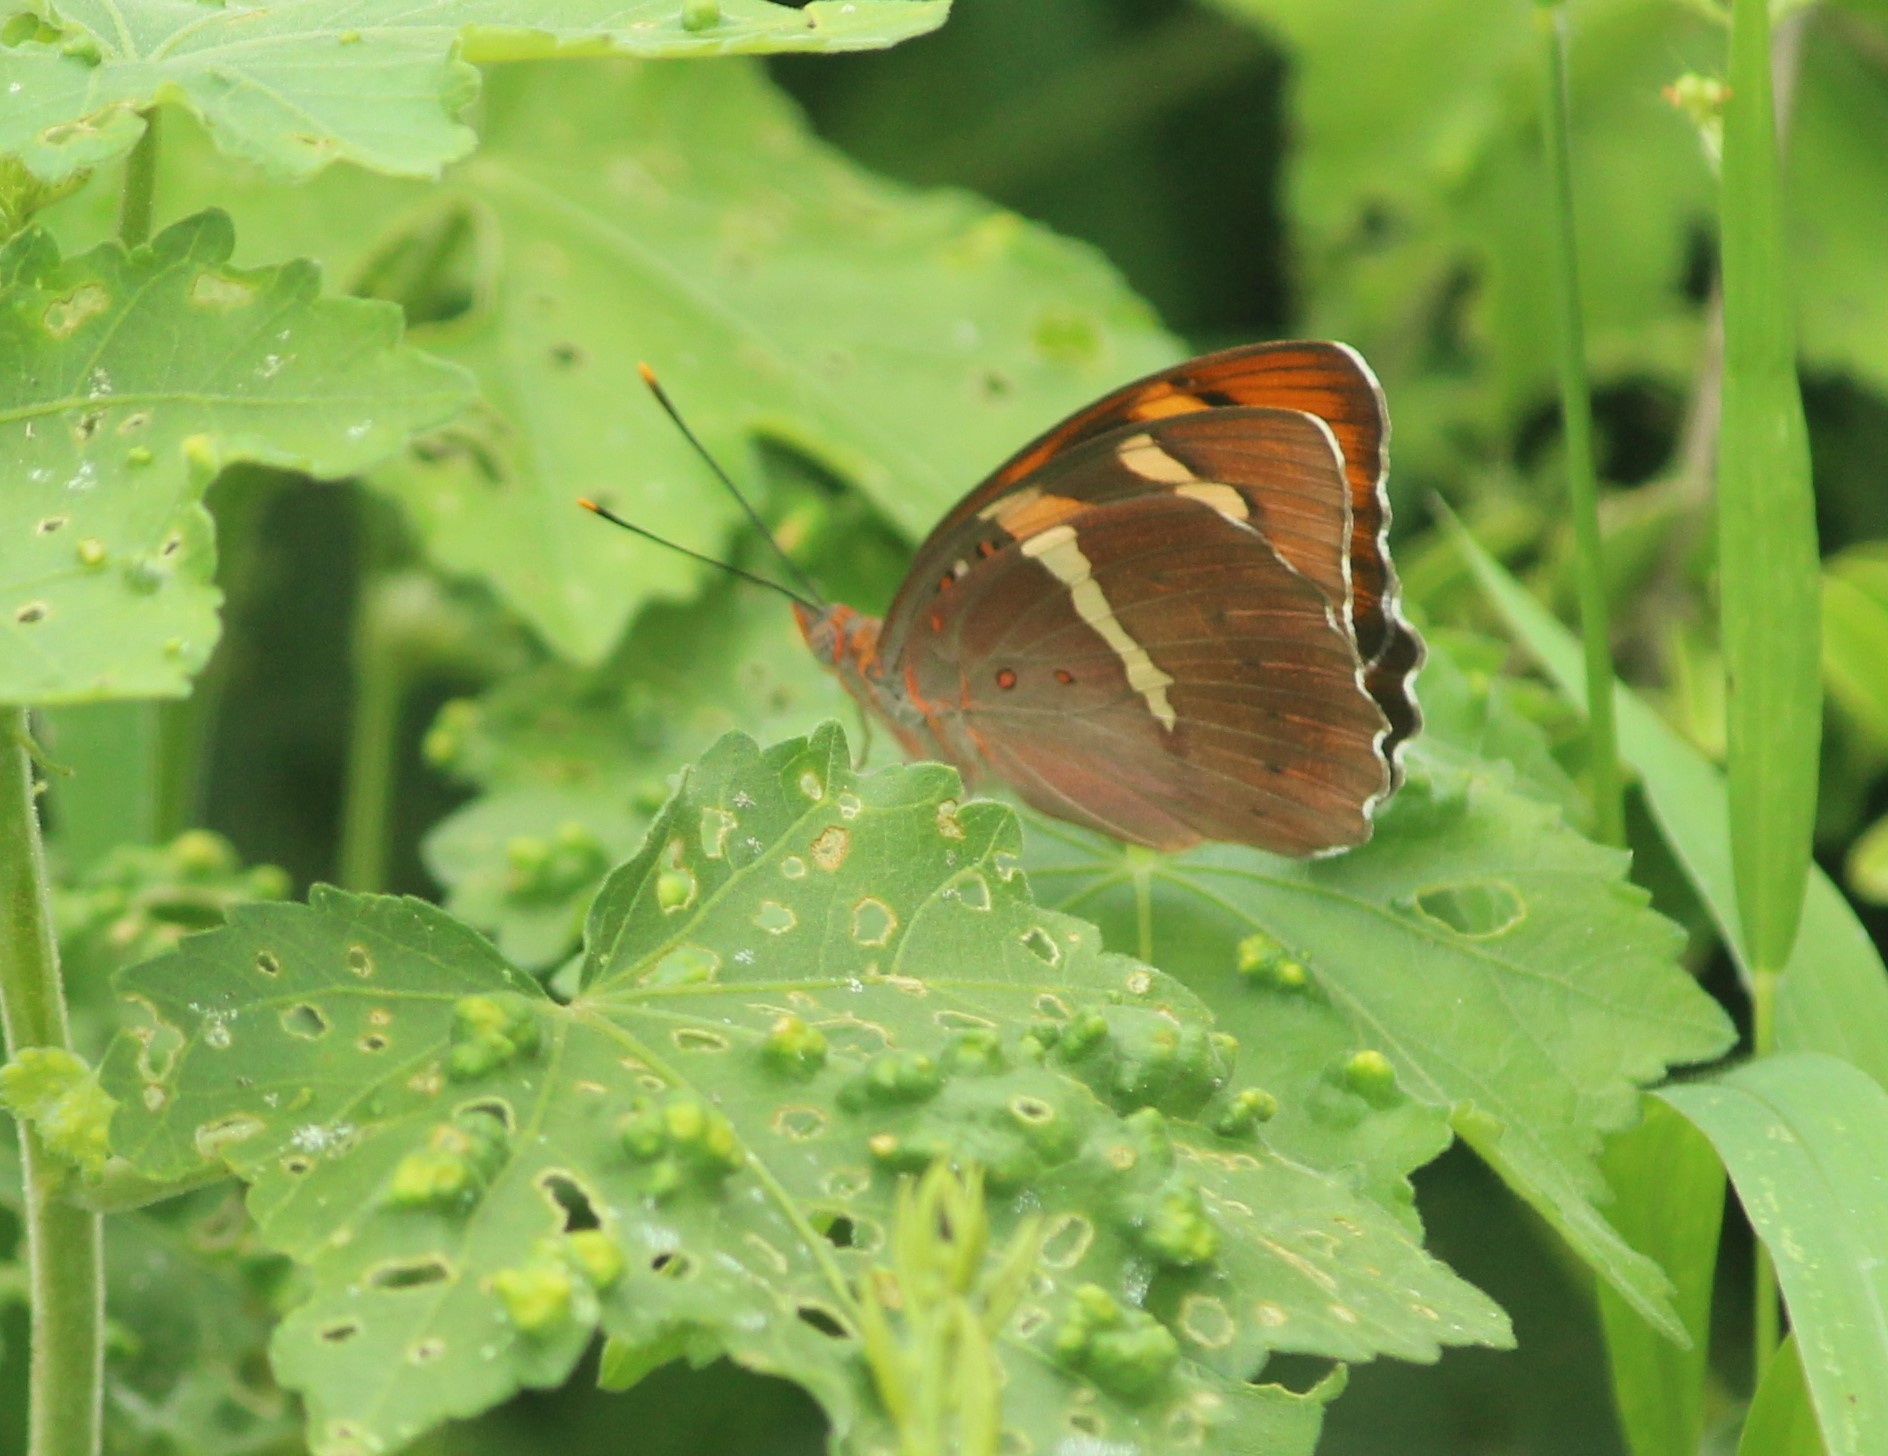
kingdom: Animalia
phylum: Arthropoda
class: Insecta
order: Lepidoptera
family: Nymphalidae
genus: Euthalia
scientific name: Euthalia nais
